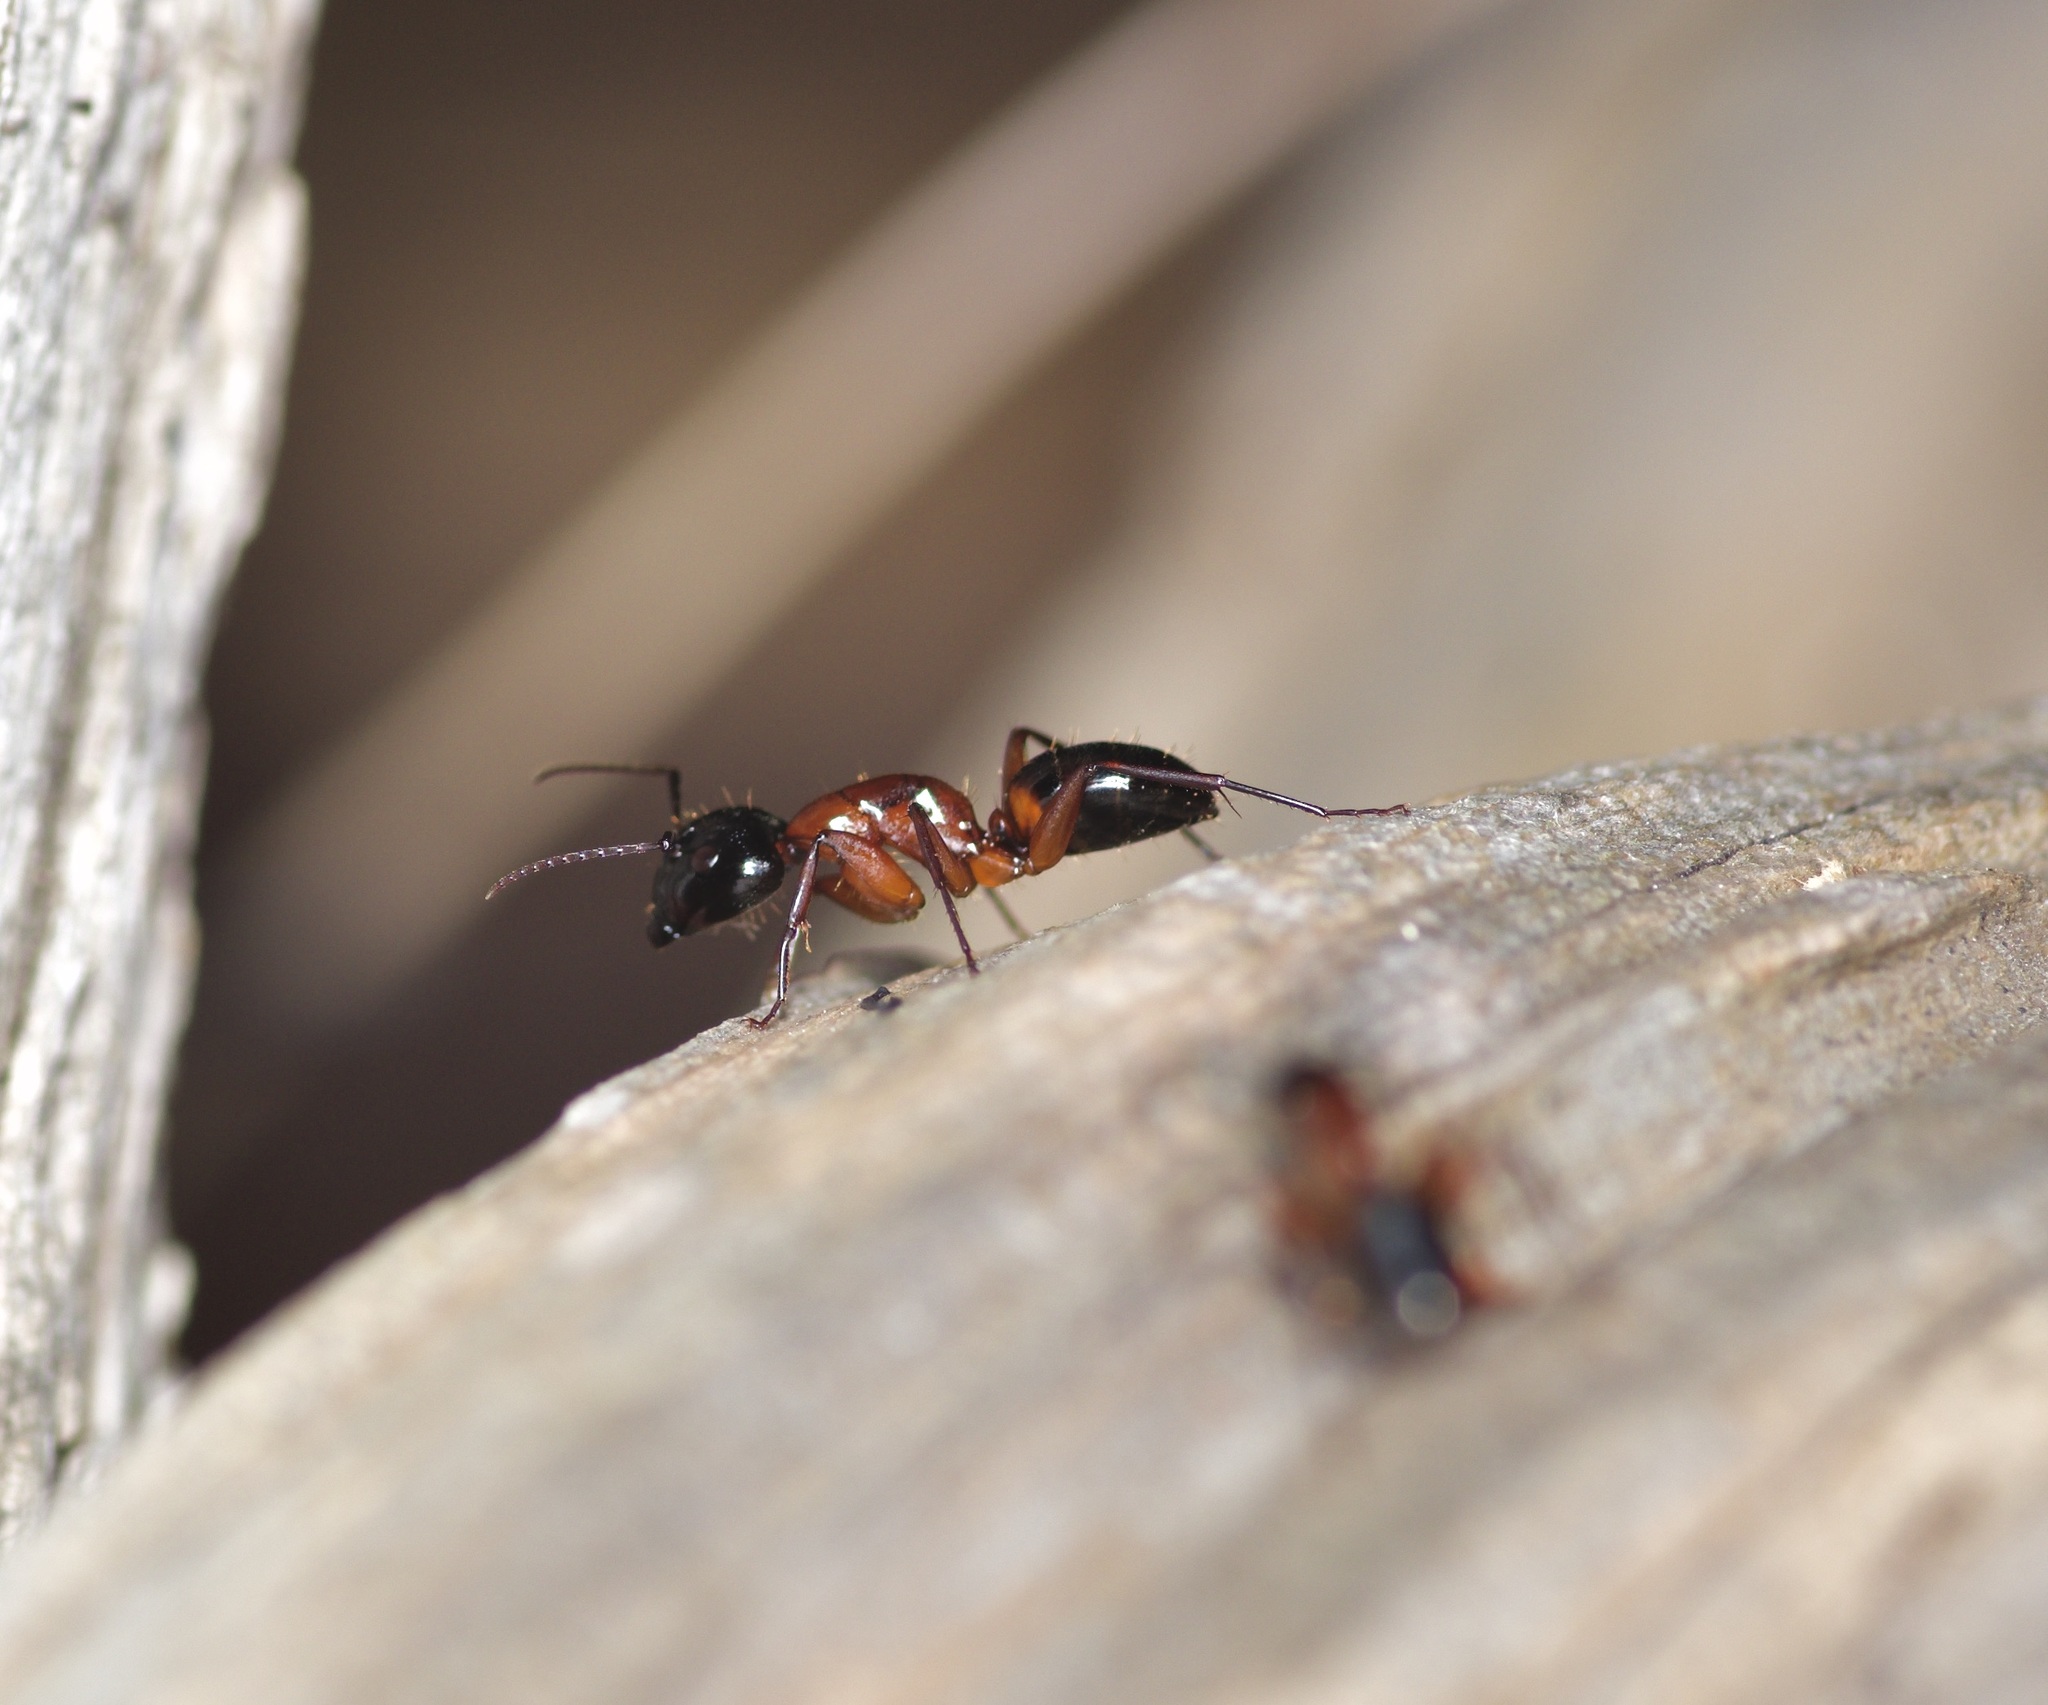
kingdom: Animalia
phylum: Arthropoda
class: Insecta
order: Hymenoptera
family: Formicidae
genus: Camponotus
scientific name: Camponotus texanus
